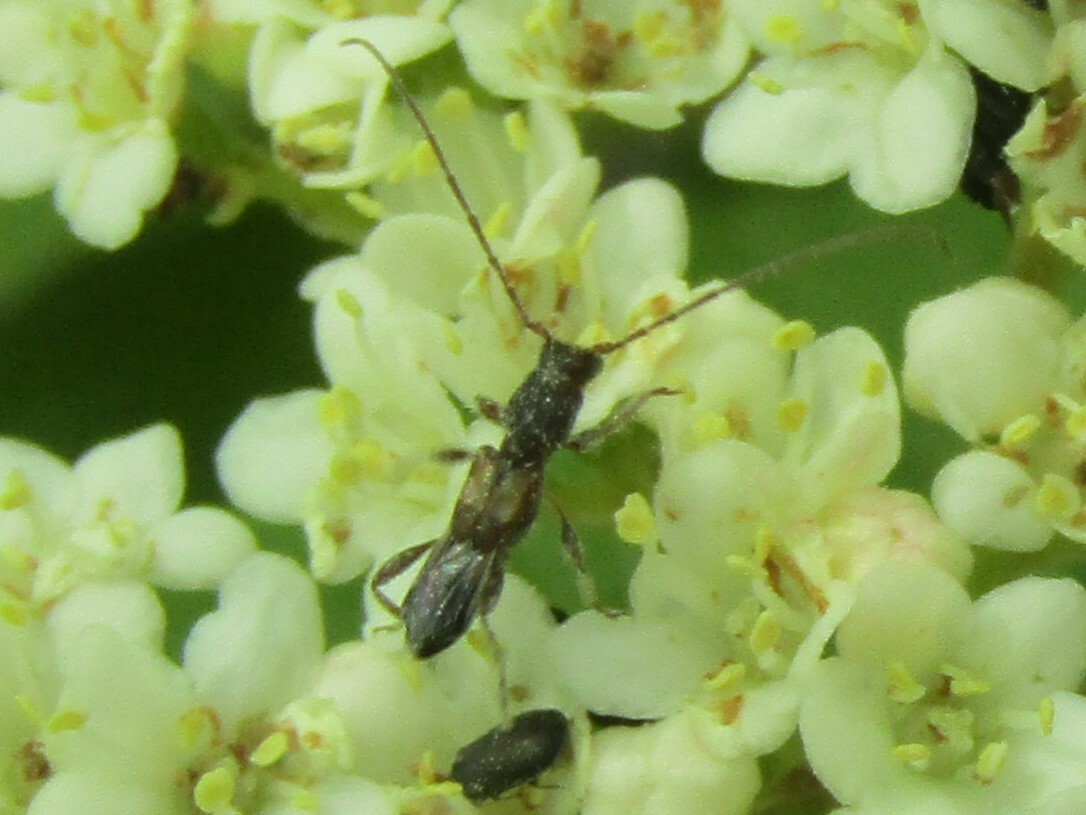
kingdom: Animalia
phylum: Arthropoda
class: Insecta
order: Coleoptera
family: Cerambycidae
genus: Molorchus
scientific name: Molorchus bimaculatus
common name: Bimaculate longhorn beetle
